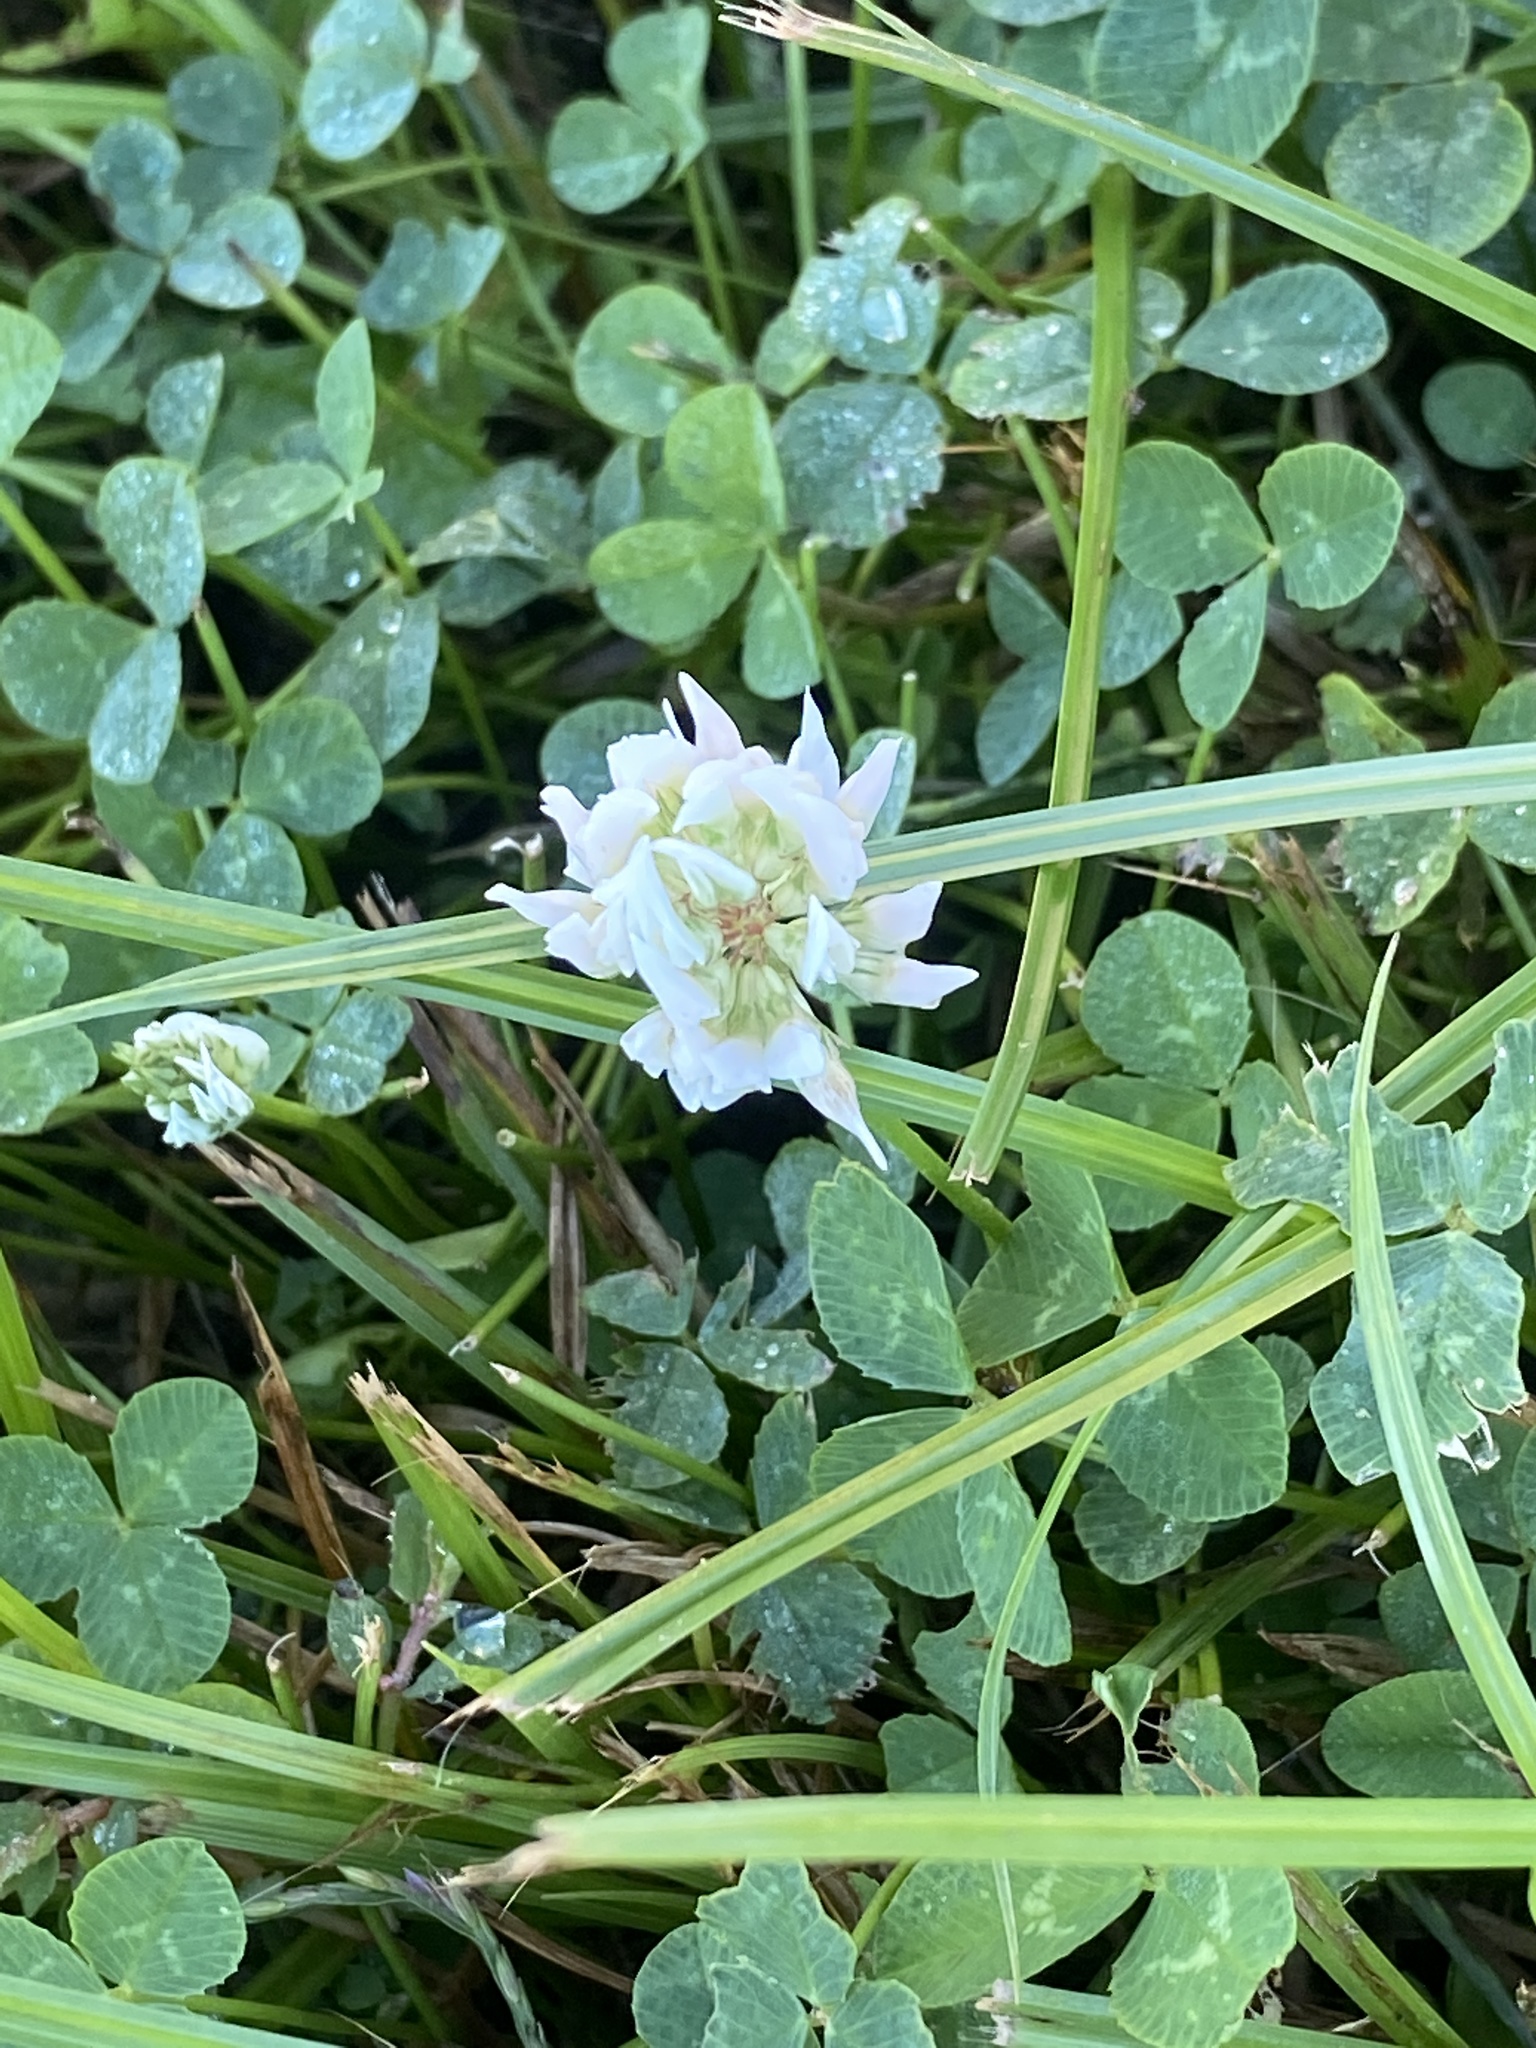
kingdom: Plantae
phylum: Tracheophyta
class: Magnoliopsida
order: Fabales
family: Fabaceae
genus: Trifolium
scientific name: Trifolium repens
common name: White clover
